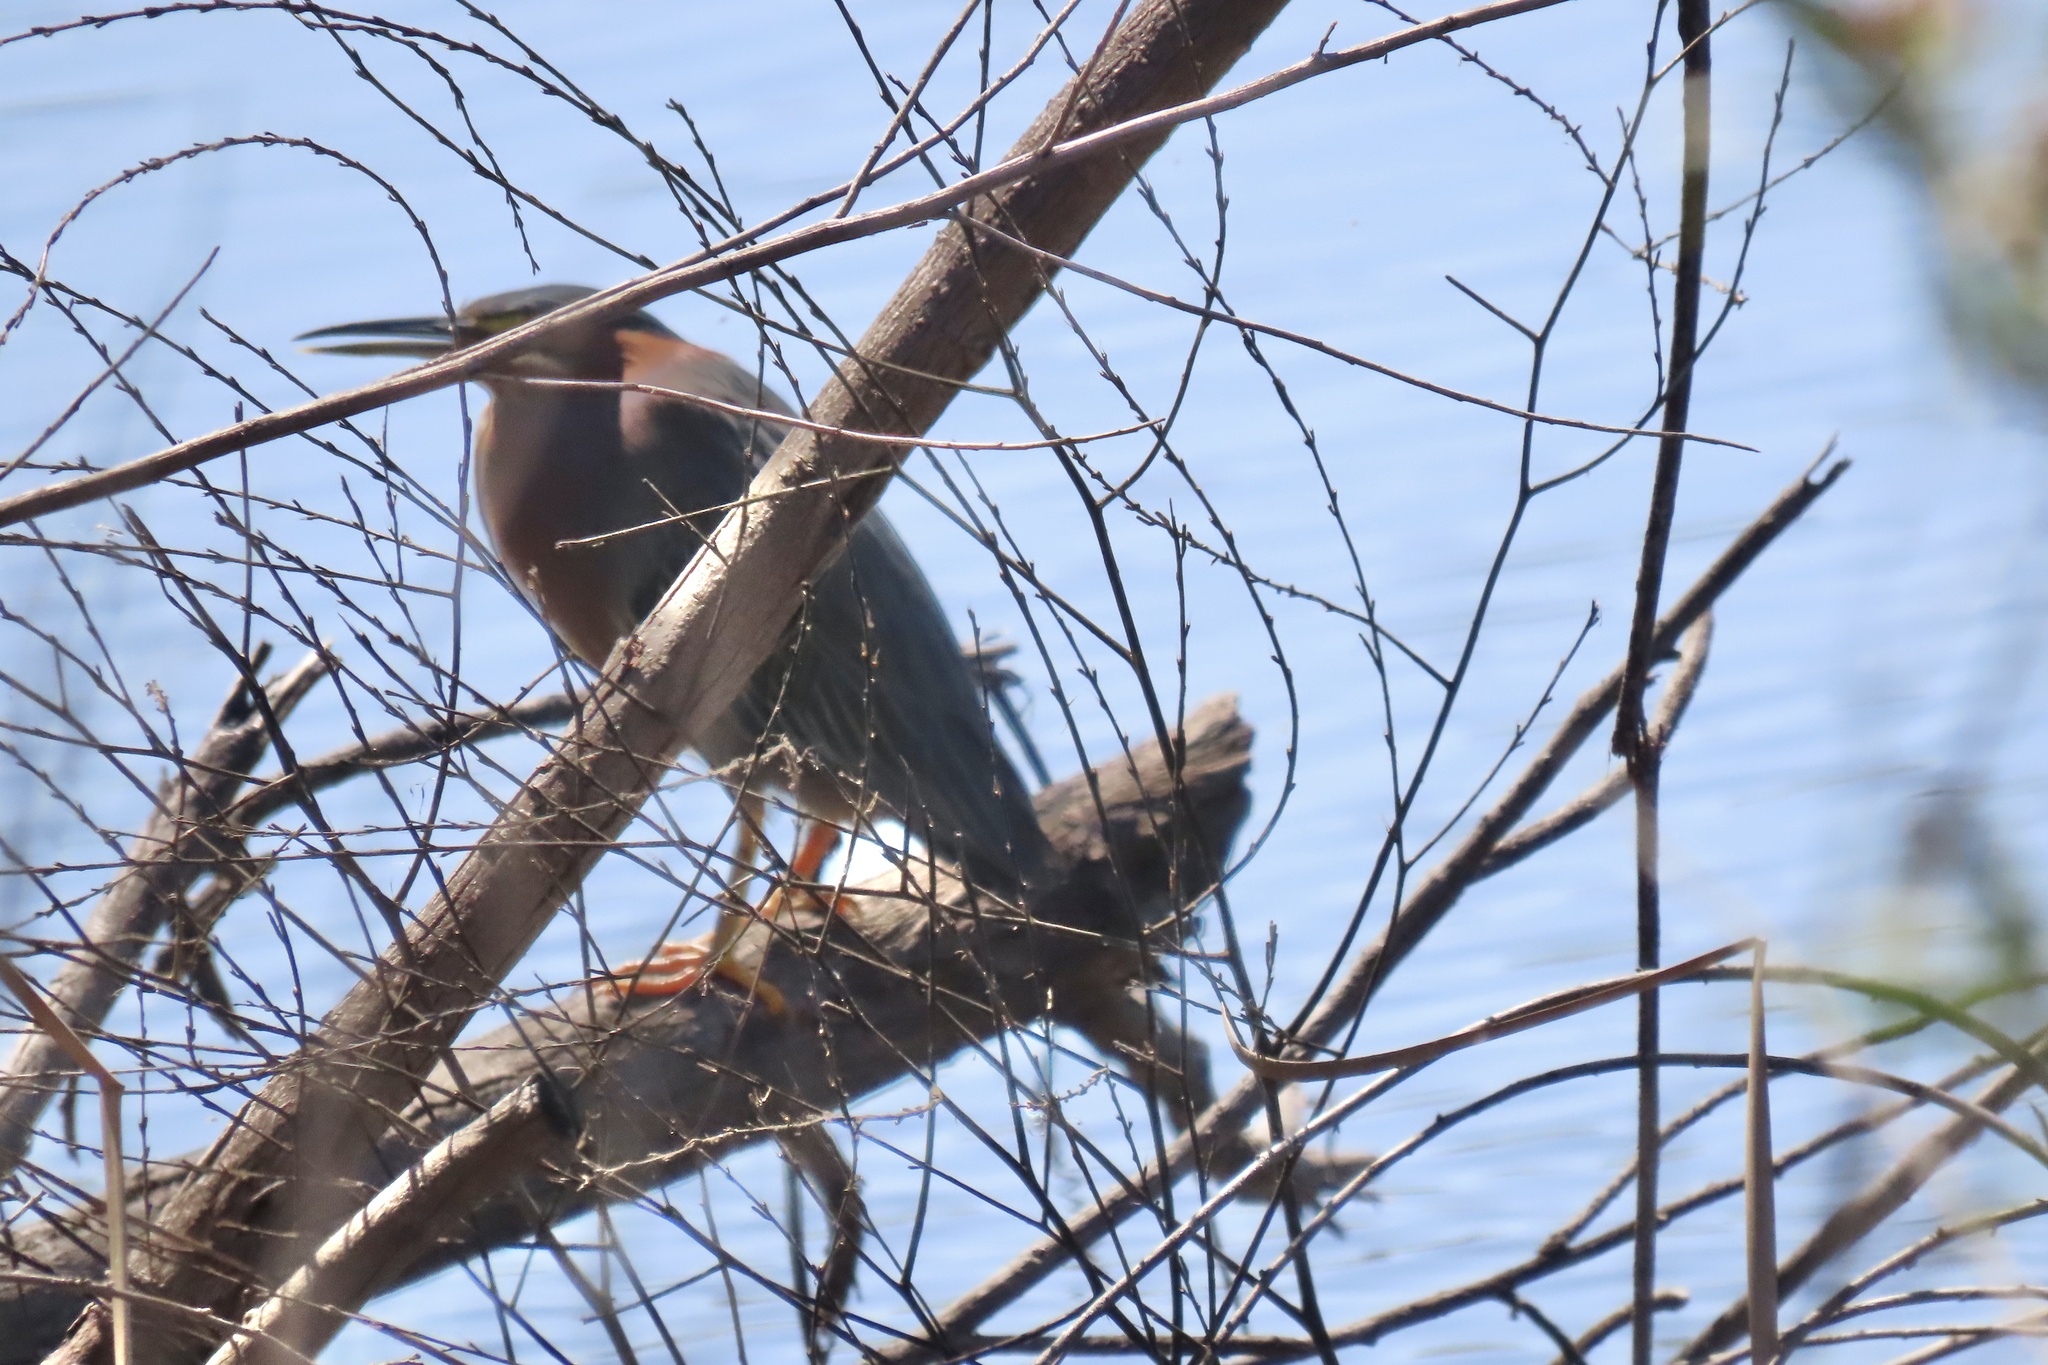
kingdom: Animalia
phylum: Chordata
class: Aves
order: Pelecaniformes
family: Ardeidae
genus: Butorides
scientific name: Butorides virescens
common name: Green heron
